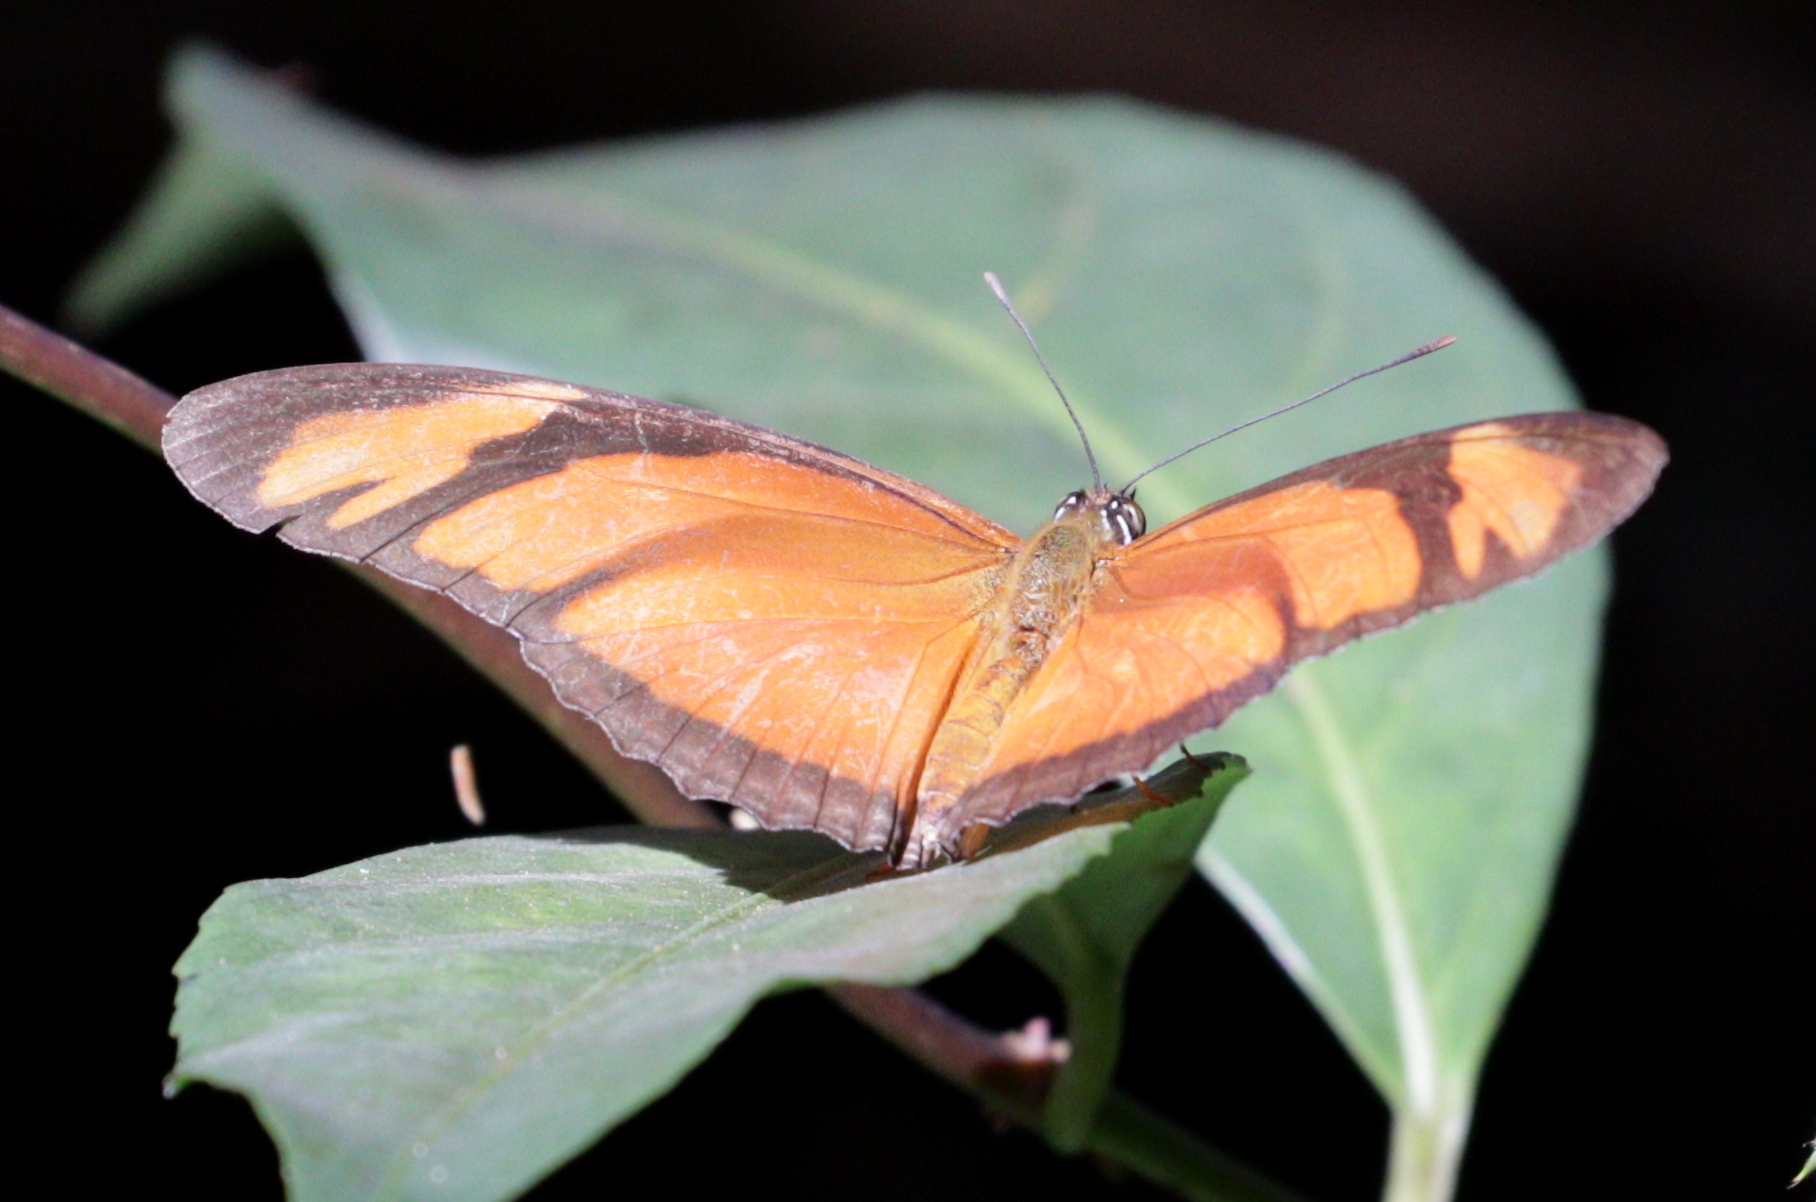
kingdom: Animalia
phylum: Arthropoda
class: Insecta
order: Lepidoptera
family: Nymphalidae
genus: Dryas
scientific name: Dryas iulia
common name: Flambeau
